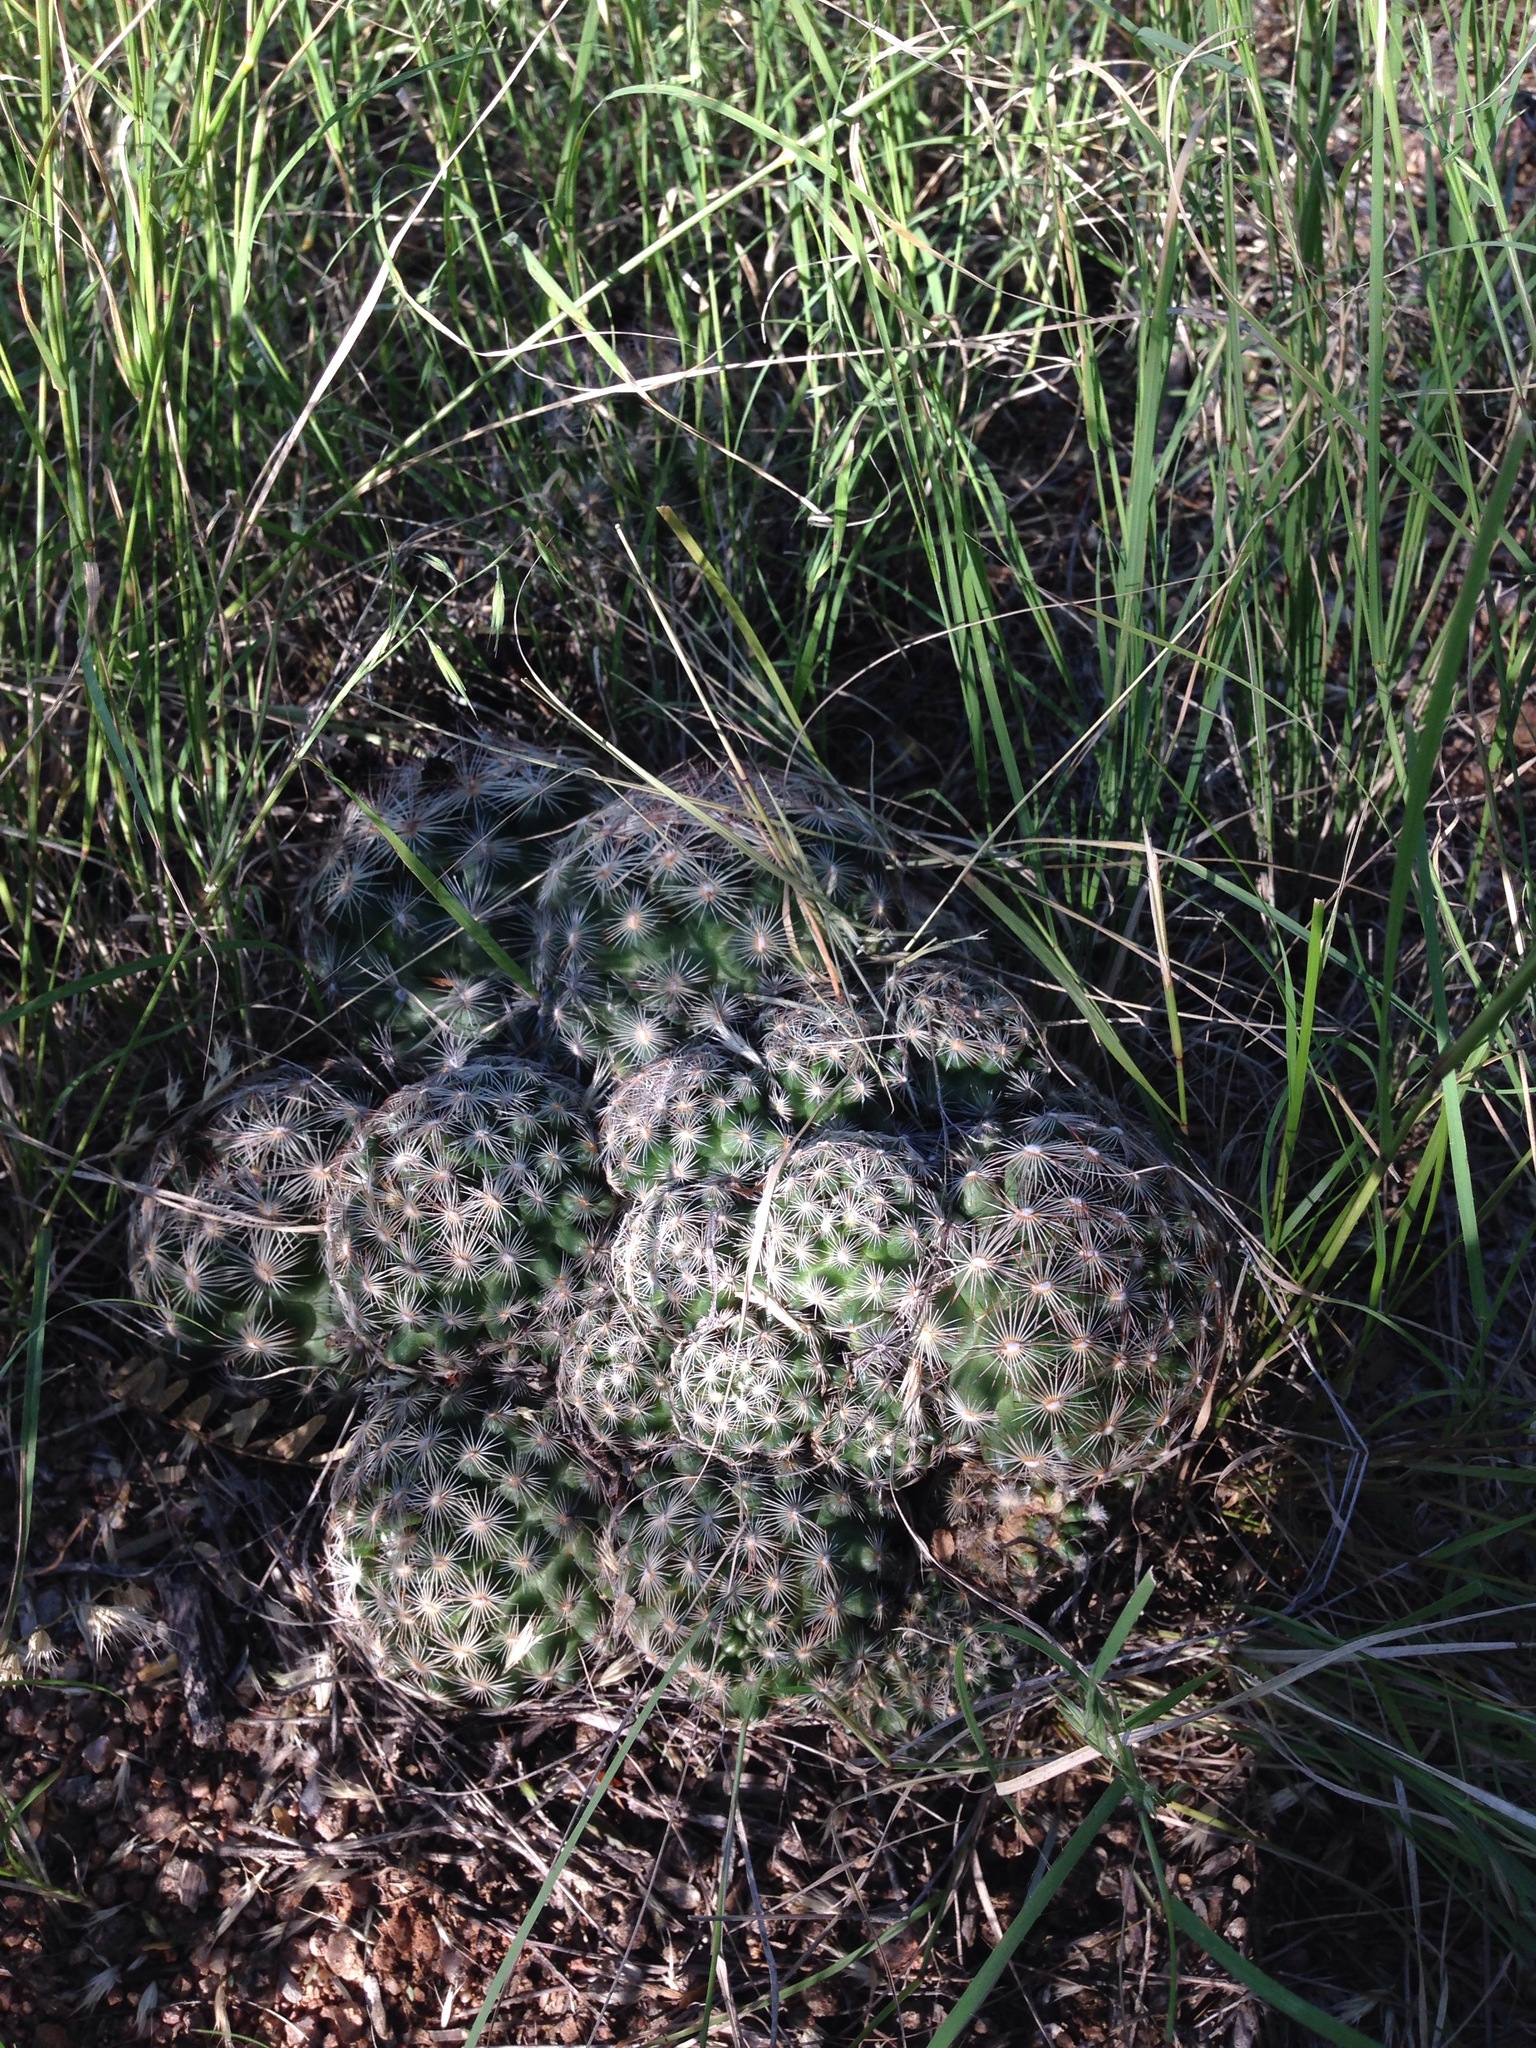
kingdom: Plantae
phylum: Tracheophyta
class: Magnoliopsida
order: Caryophyllales
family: Cactaceae
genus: Pelecyphora
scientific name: Pelecyphora vivipara
